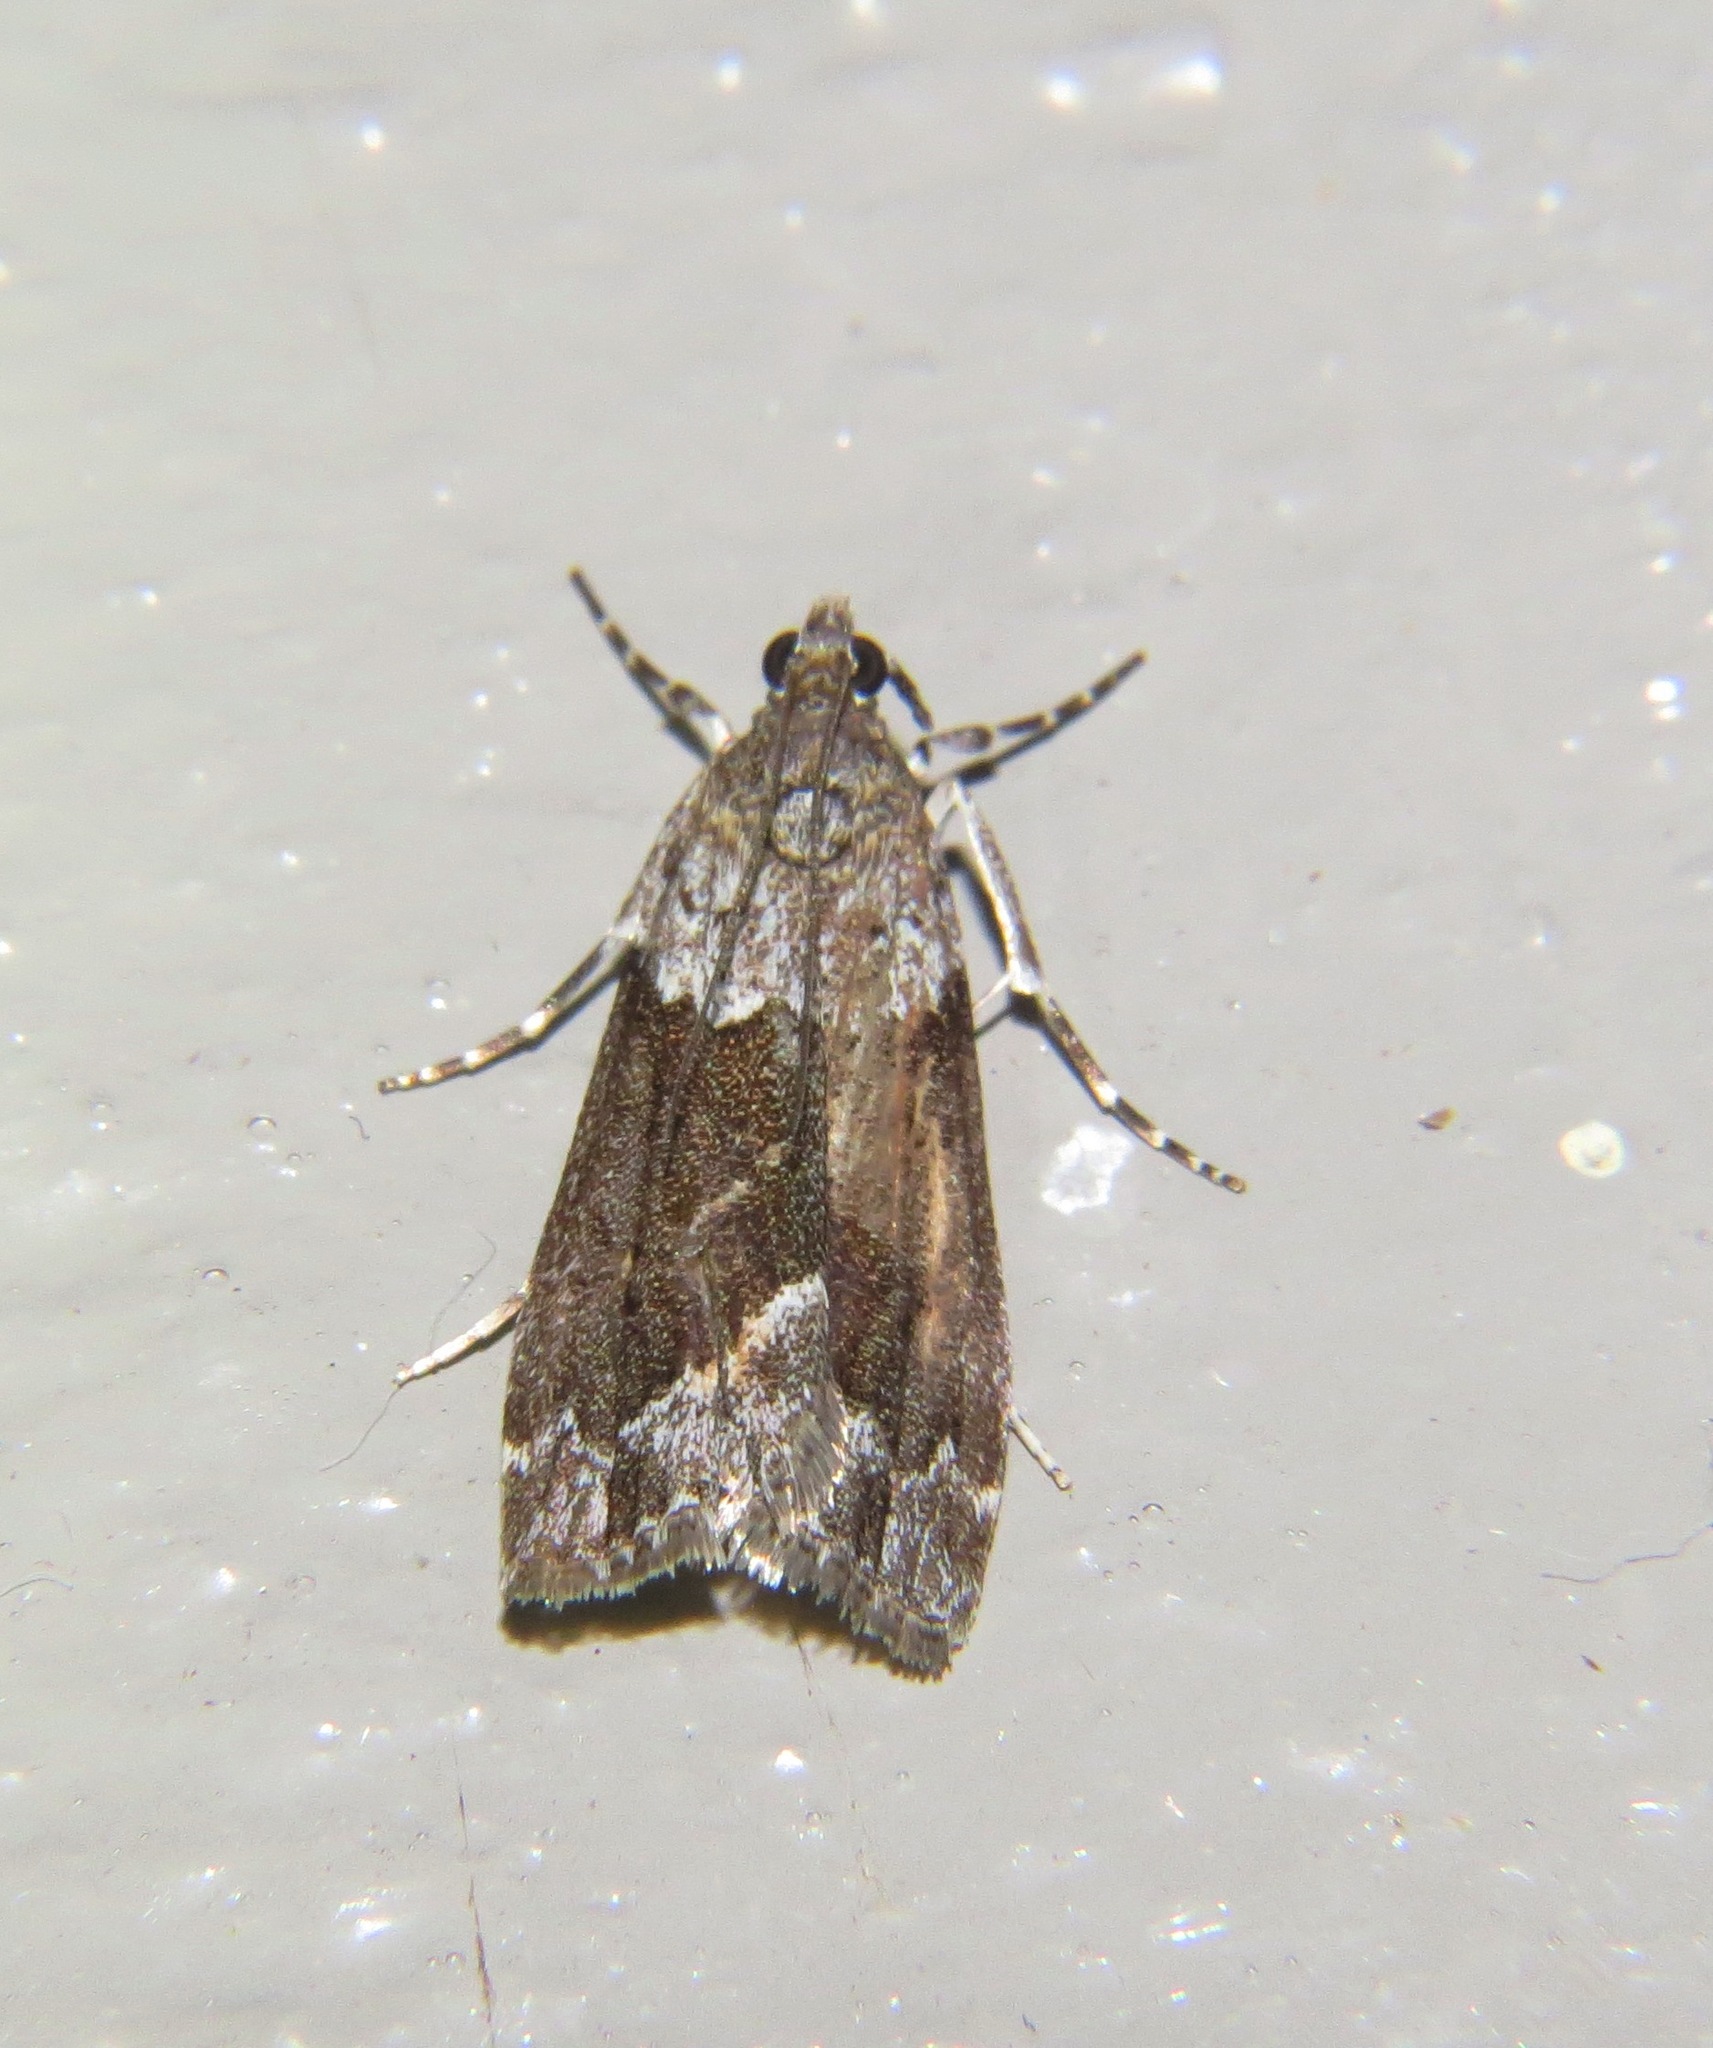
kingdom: Animalia
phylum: Arthropoda
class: Insecta
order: Lepidoptera
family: Crambidae
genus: Eudonia
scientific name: Eudonia submarginalis
